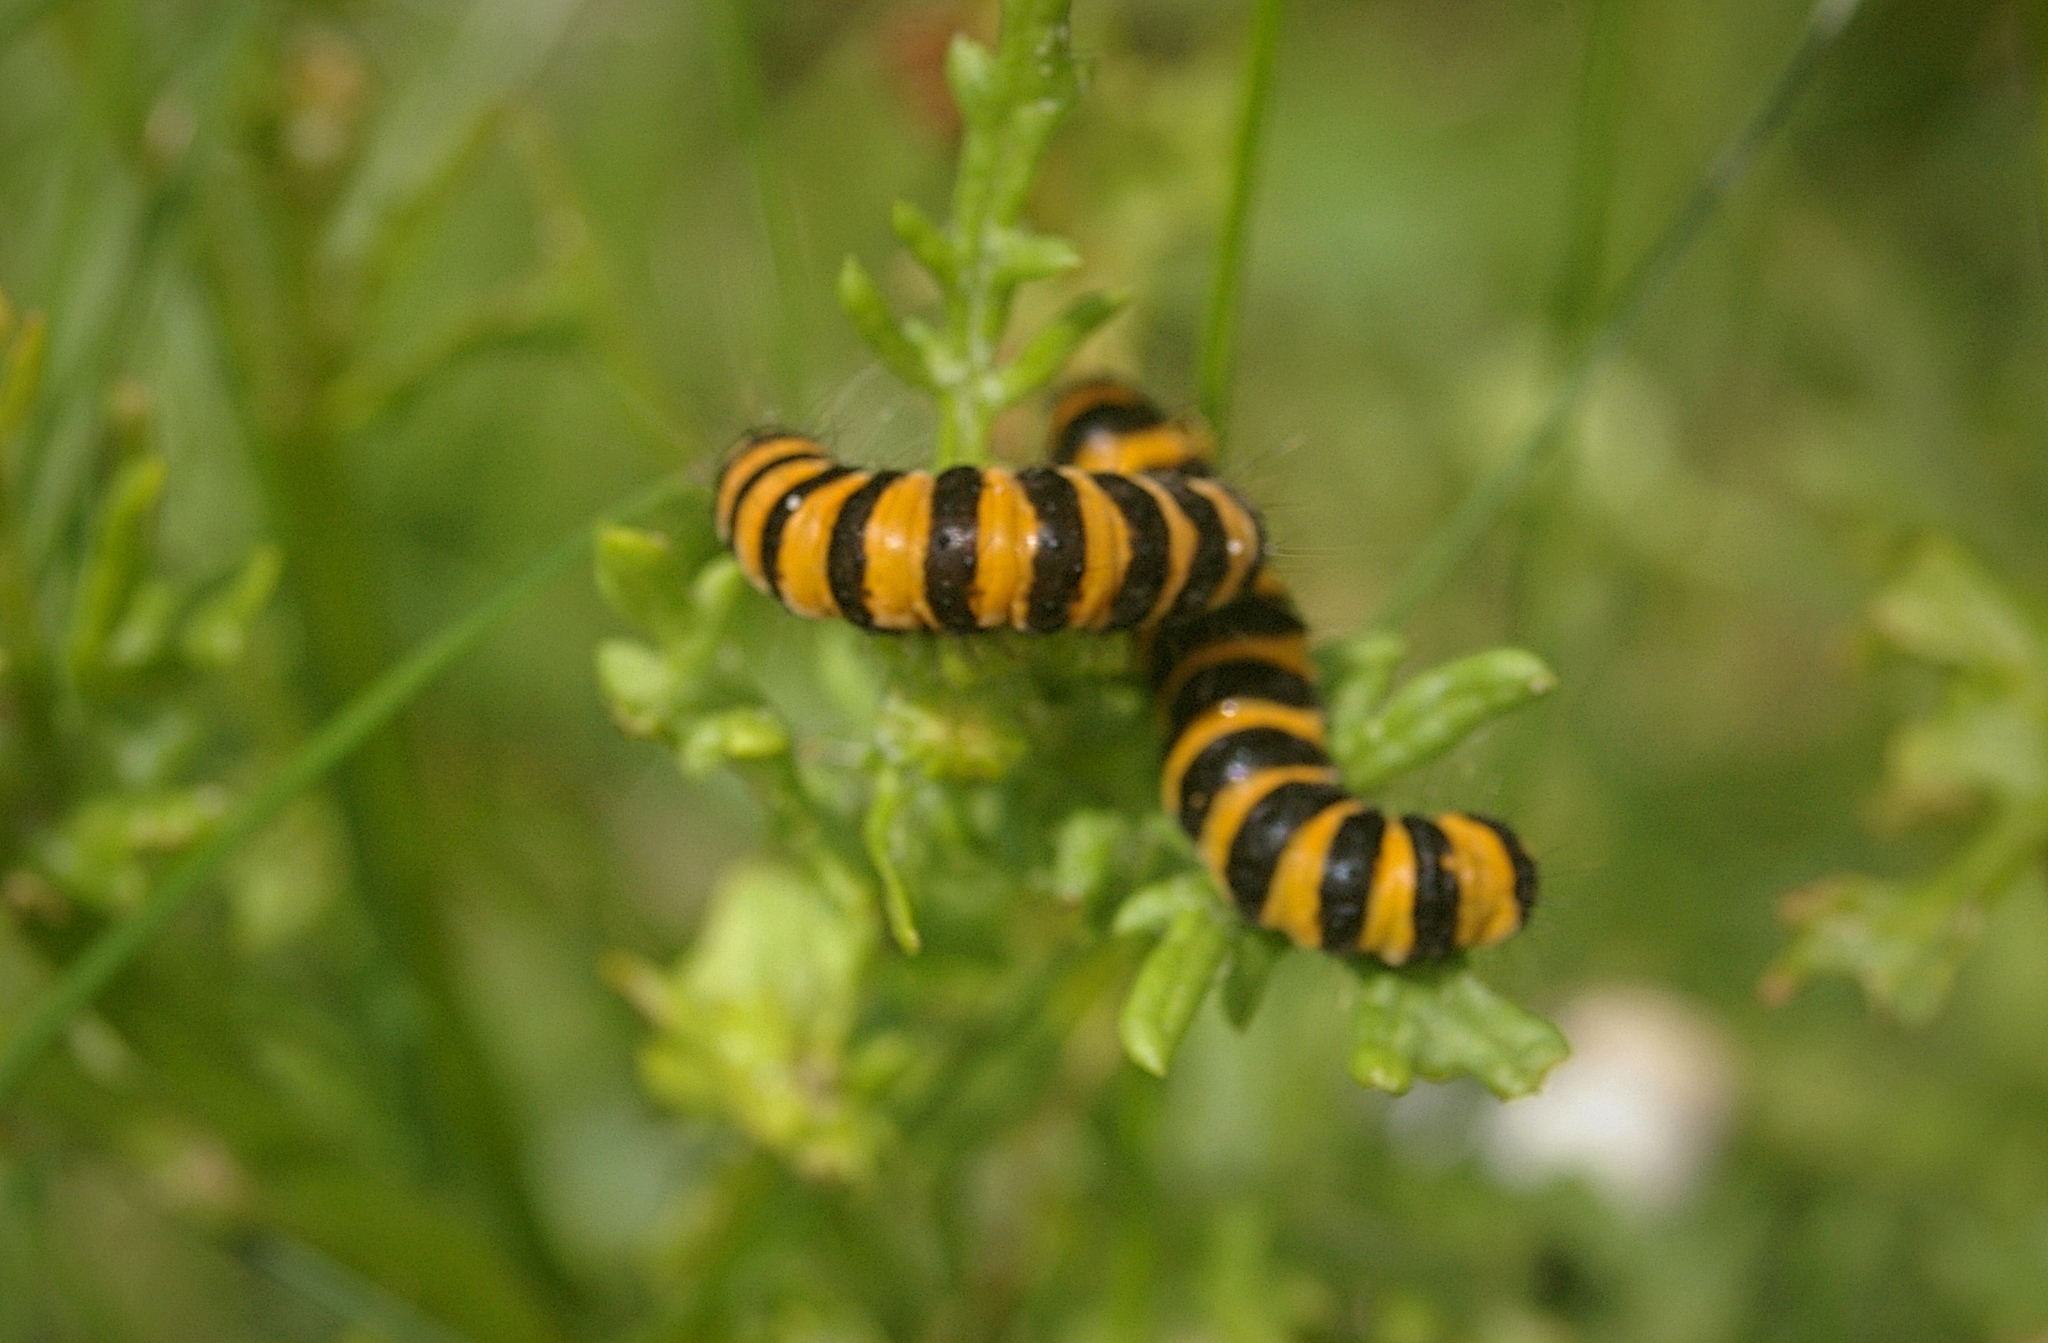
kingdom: Animalia
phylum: Arthropoda
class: Insecta
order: Lepidoptera
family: Erebidae
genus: Tyria
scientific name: Tyria jacobaeae
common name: Cinnabar
